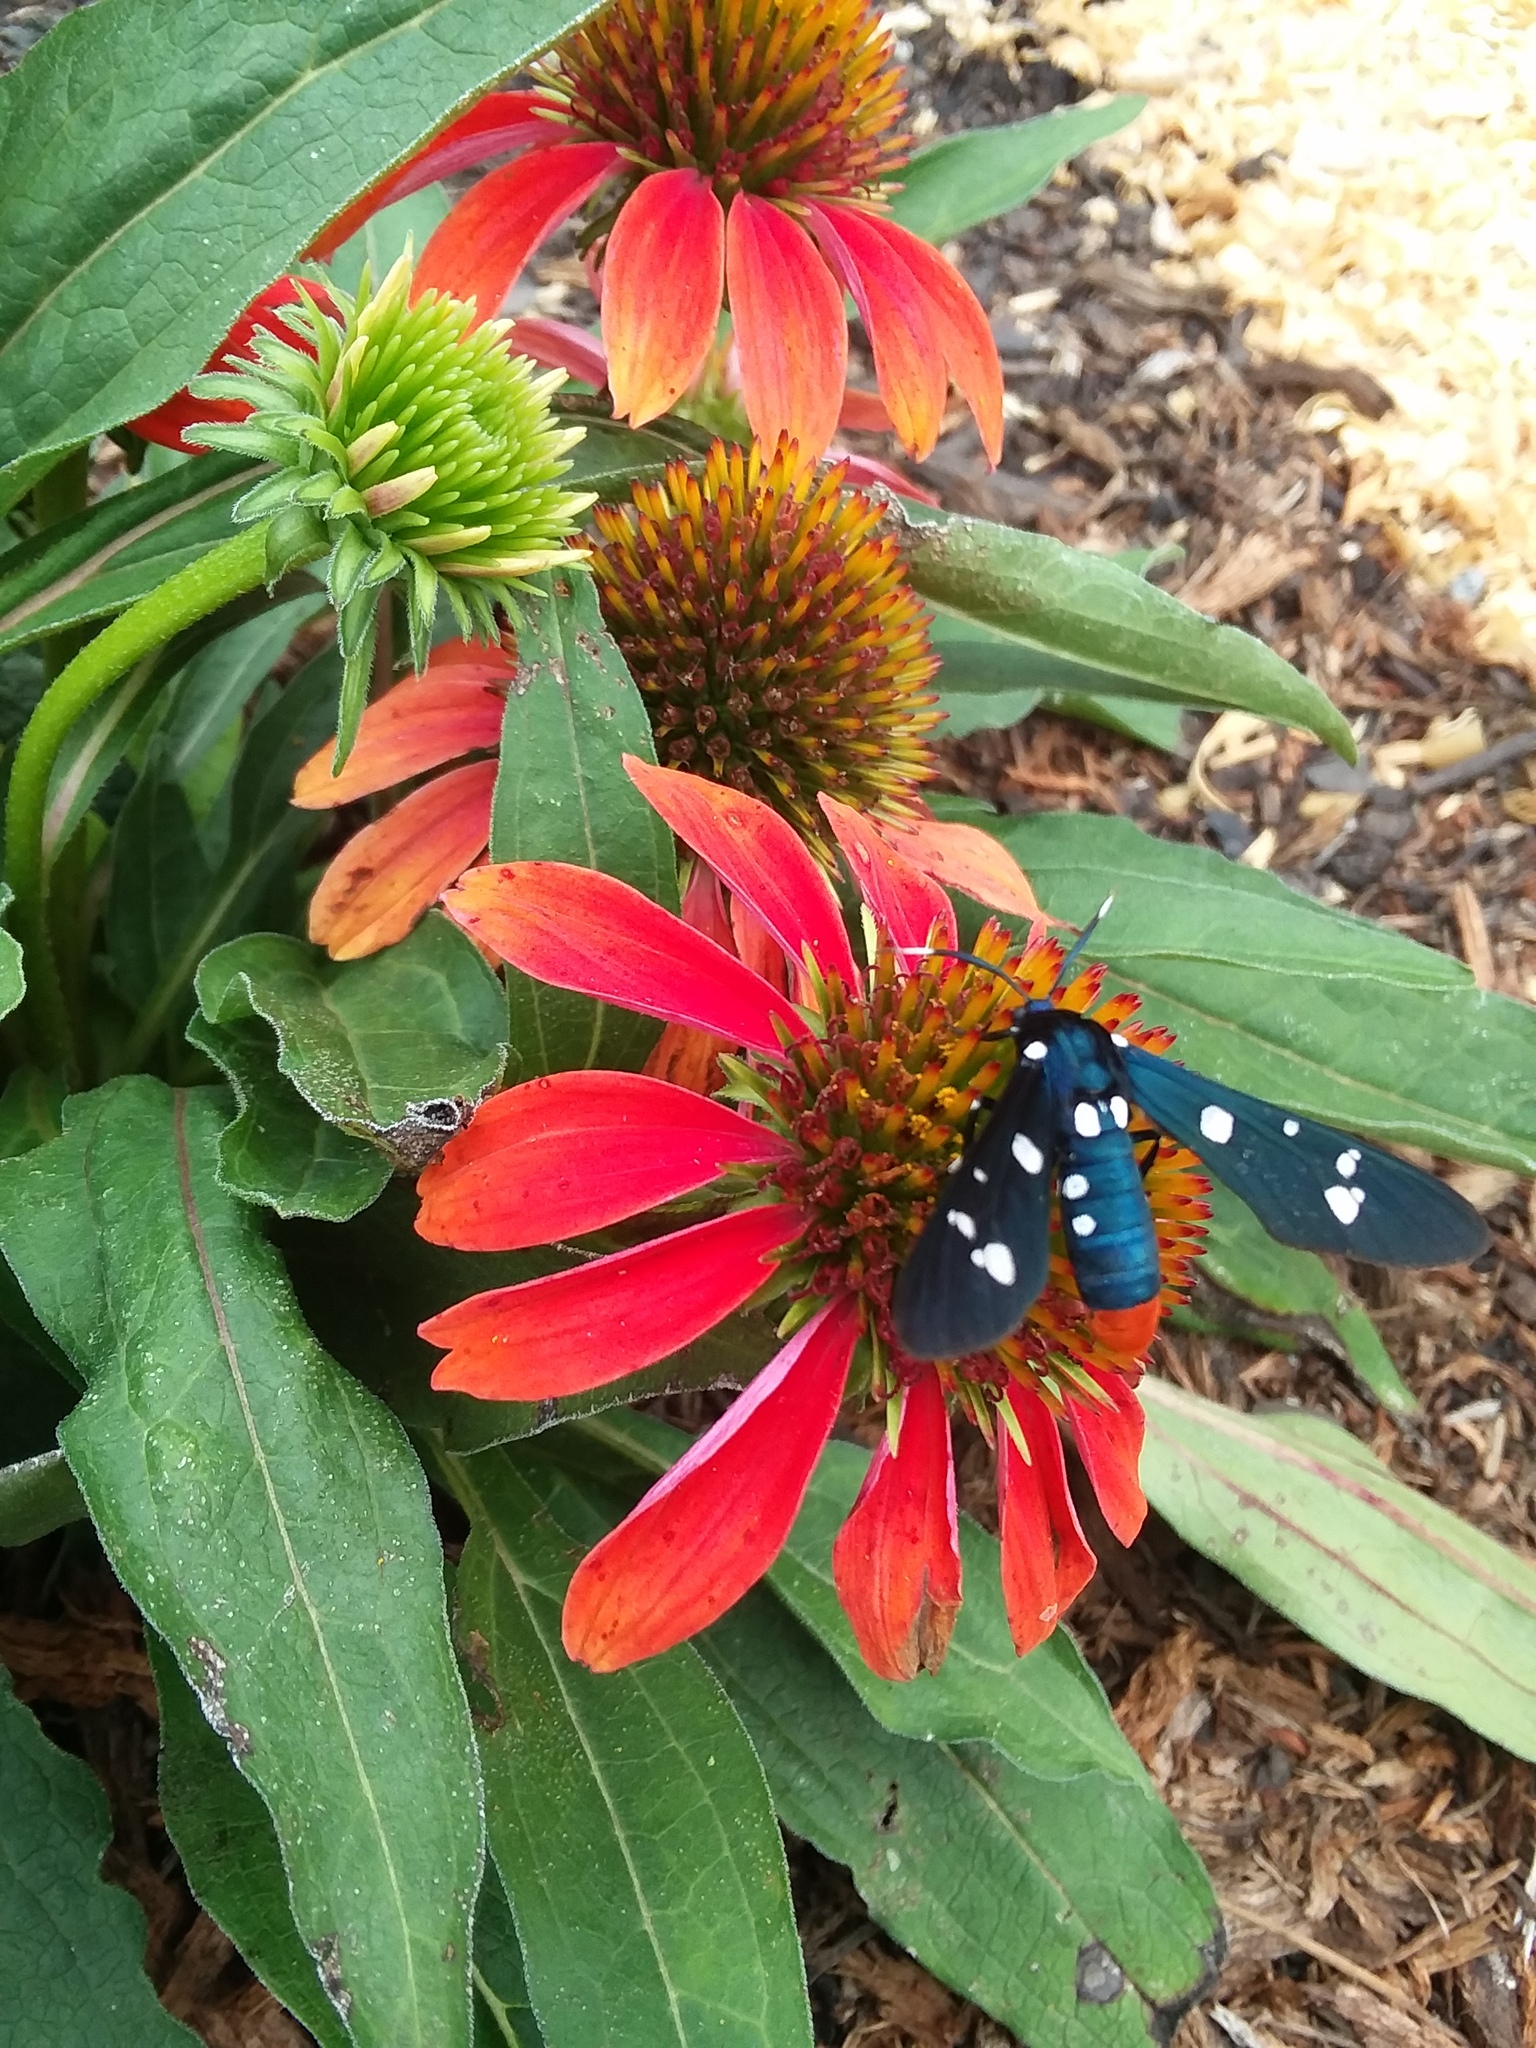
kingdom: Animalia
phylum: Arthropoda
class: Insecta
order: Lepidoptera
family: Erebidae
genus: Syntomeida
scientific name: Syntomeida epilais
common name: Polka-dot wasp moth
